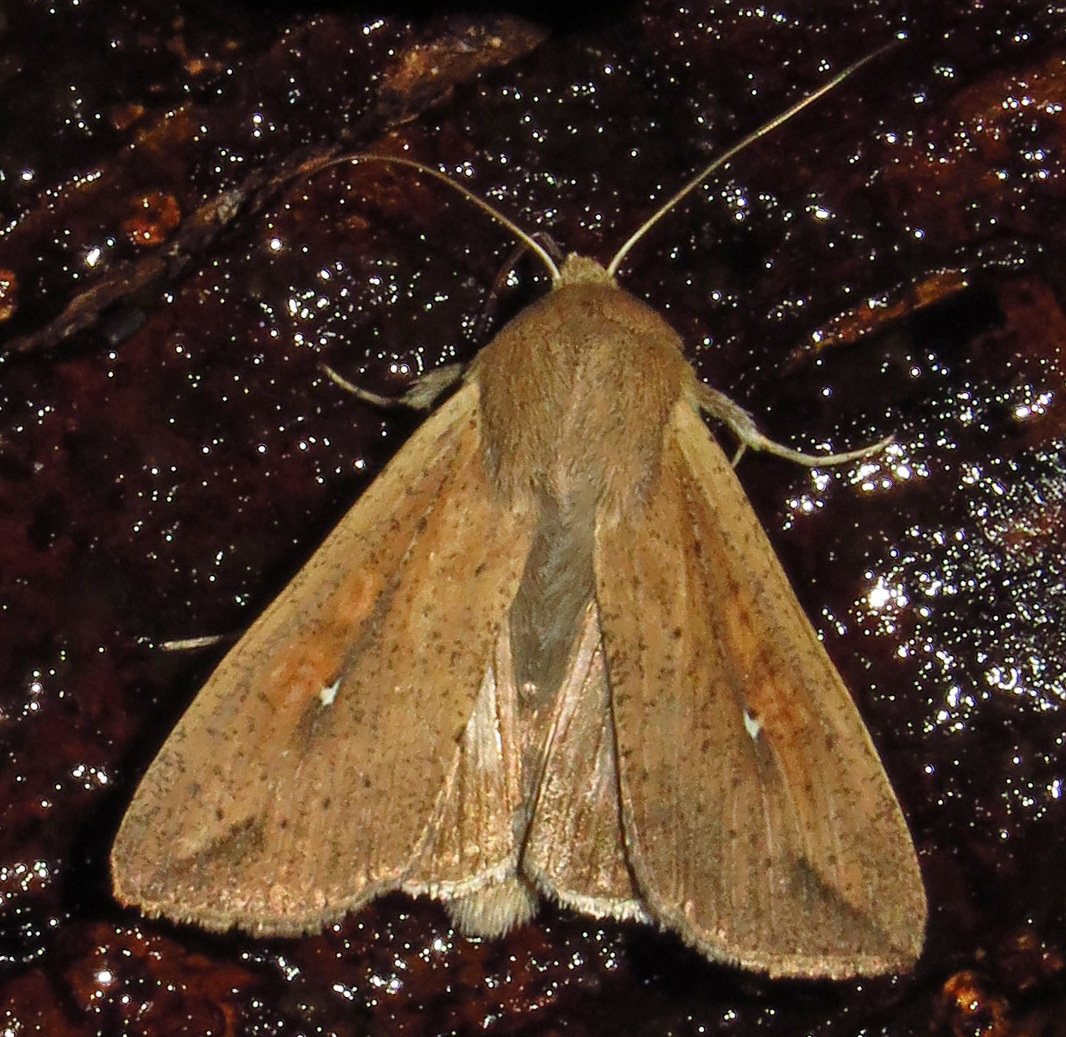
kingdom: Animalia
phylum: Arthropoda
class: Insecta
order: Lepidoptera
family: Noctuidae
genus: Mythimna
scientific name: Mythimna unipuncta
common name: White-speck
